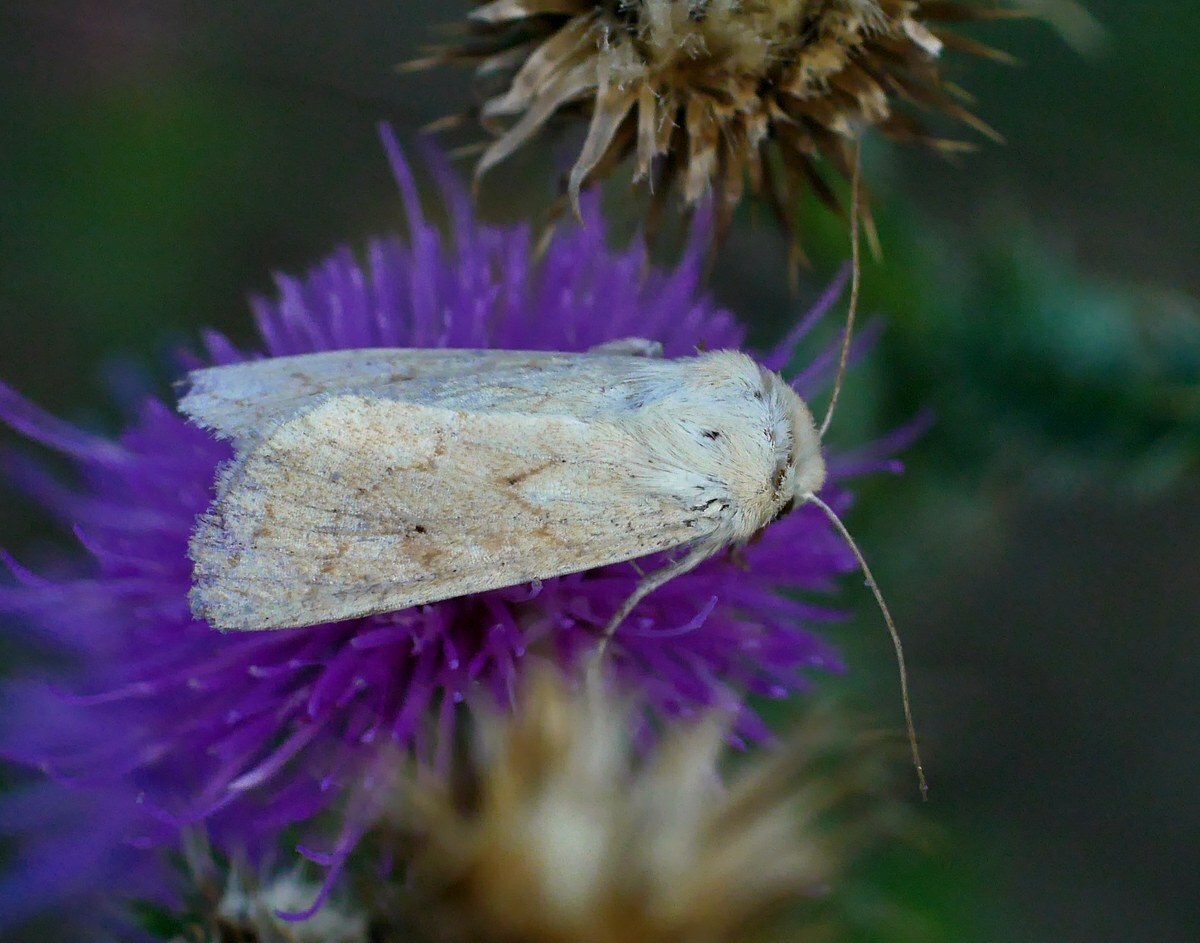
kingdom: Animalia
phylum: Arthropoda
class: Insecta
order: Lepidoptera
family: Noctuidae
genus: Mythimna
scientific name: Mythimna vitellina
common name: Delicate
